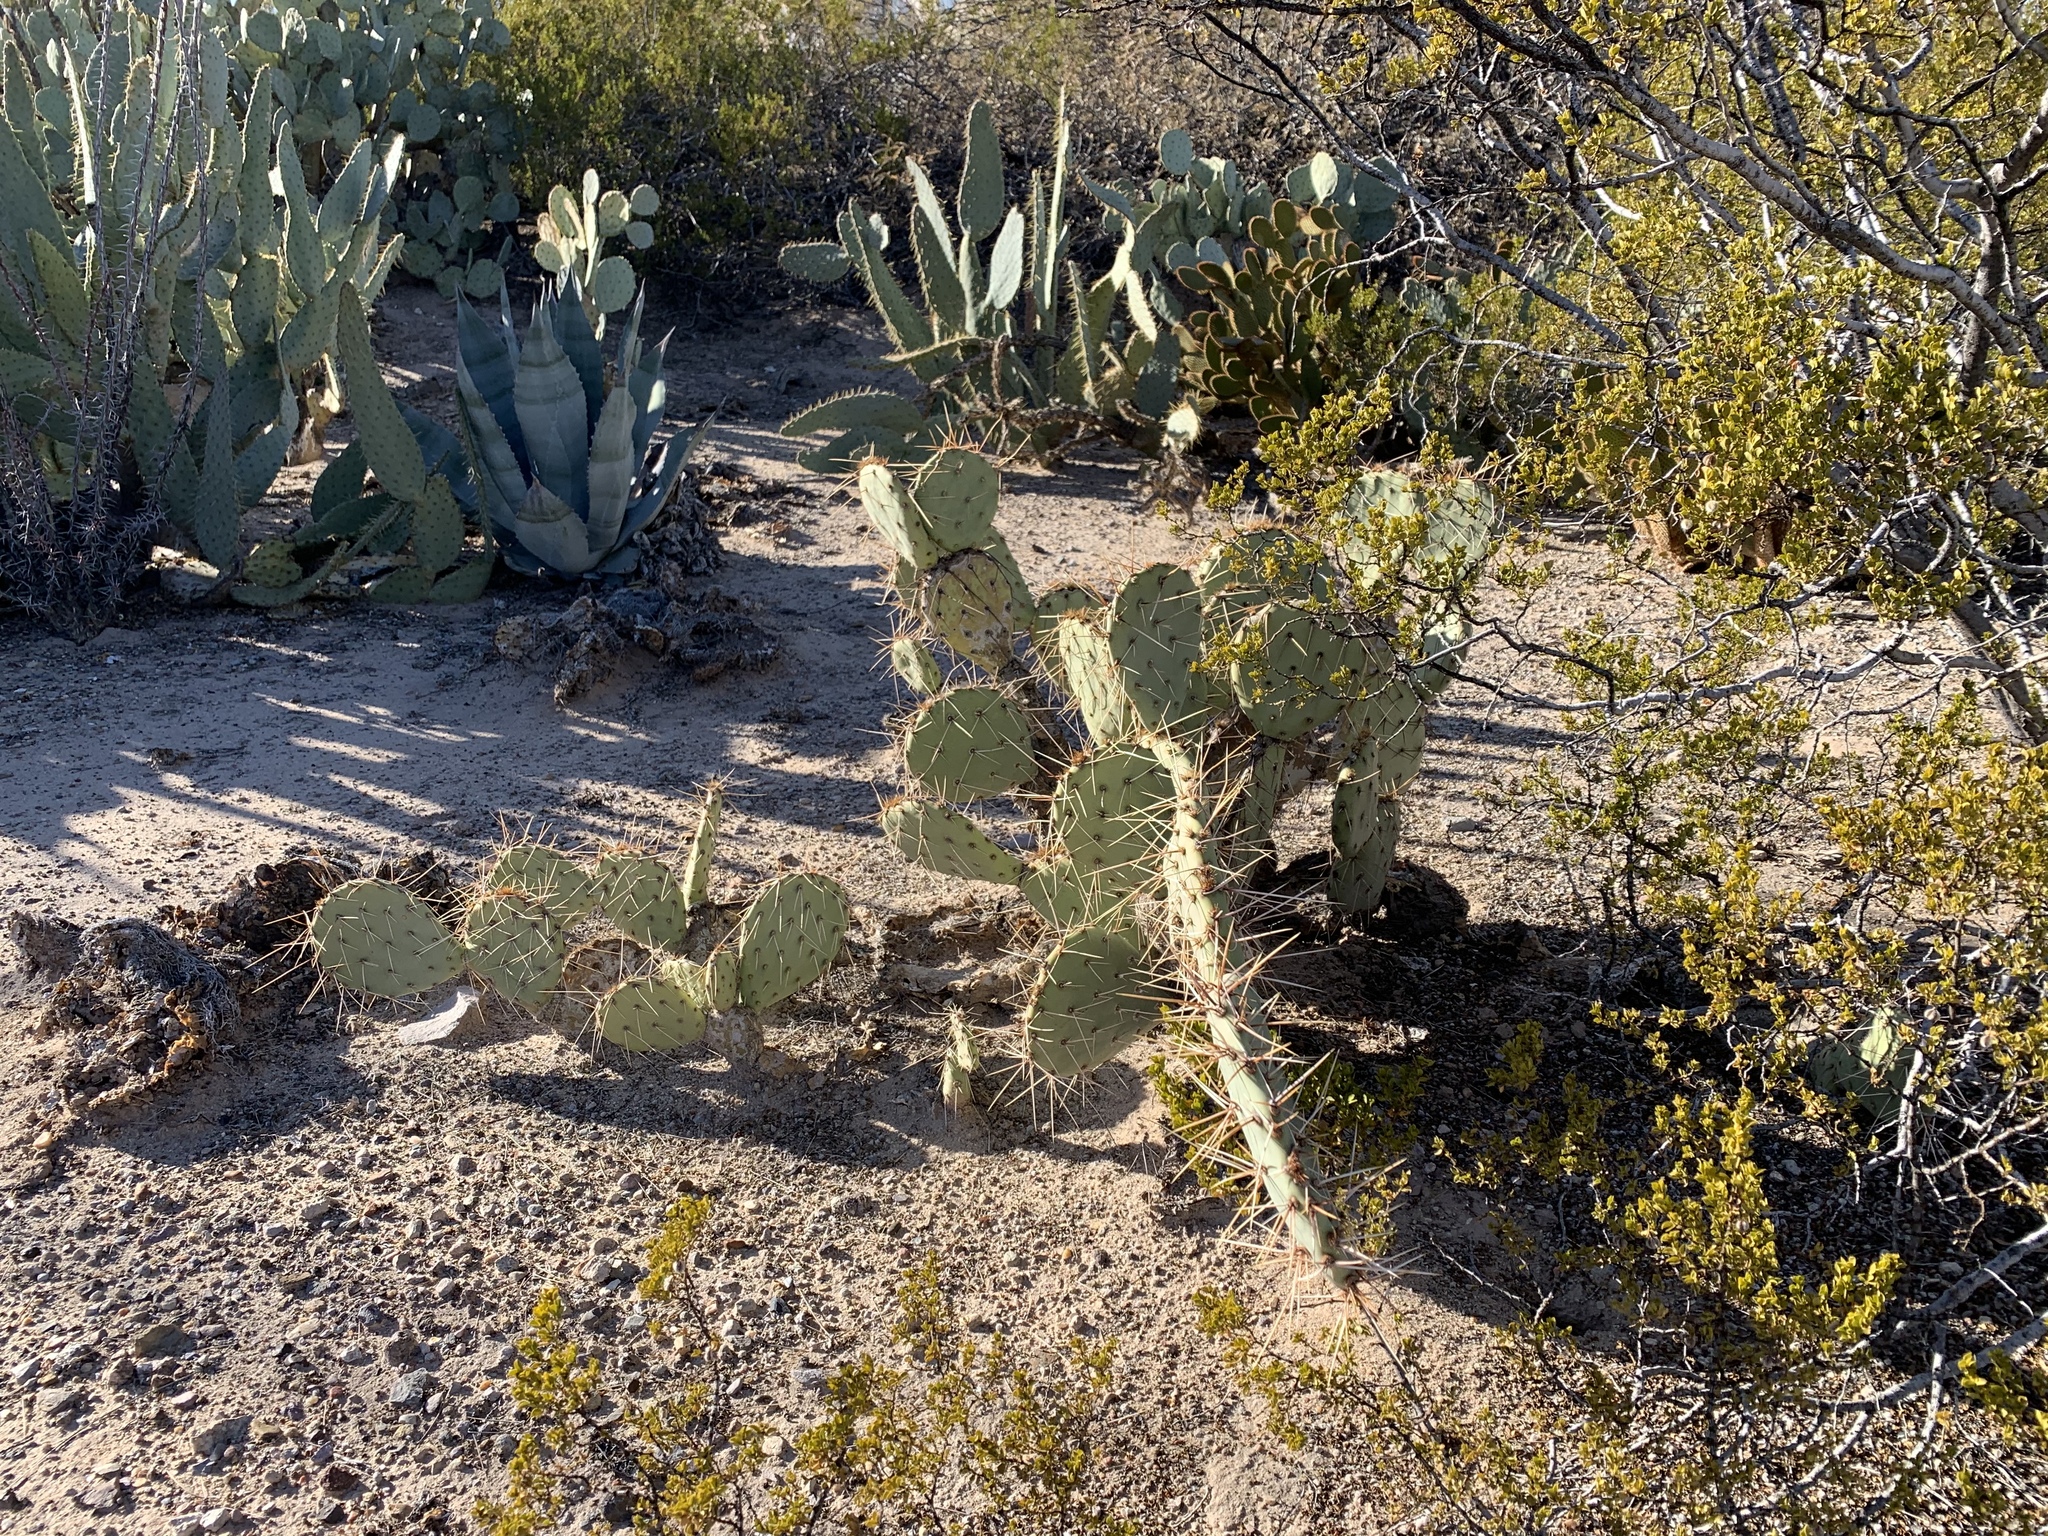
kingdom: Plantae
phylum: Tracheophyta
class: Magnoliopsida
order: Caryophyllales
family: Cactaceae
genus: Opuntia
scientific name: Opuntia phaeacantha
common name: New mexico prickly-pear
